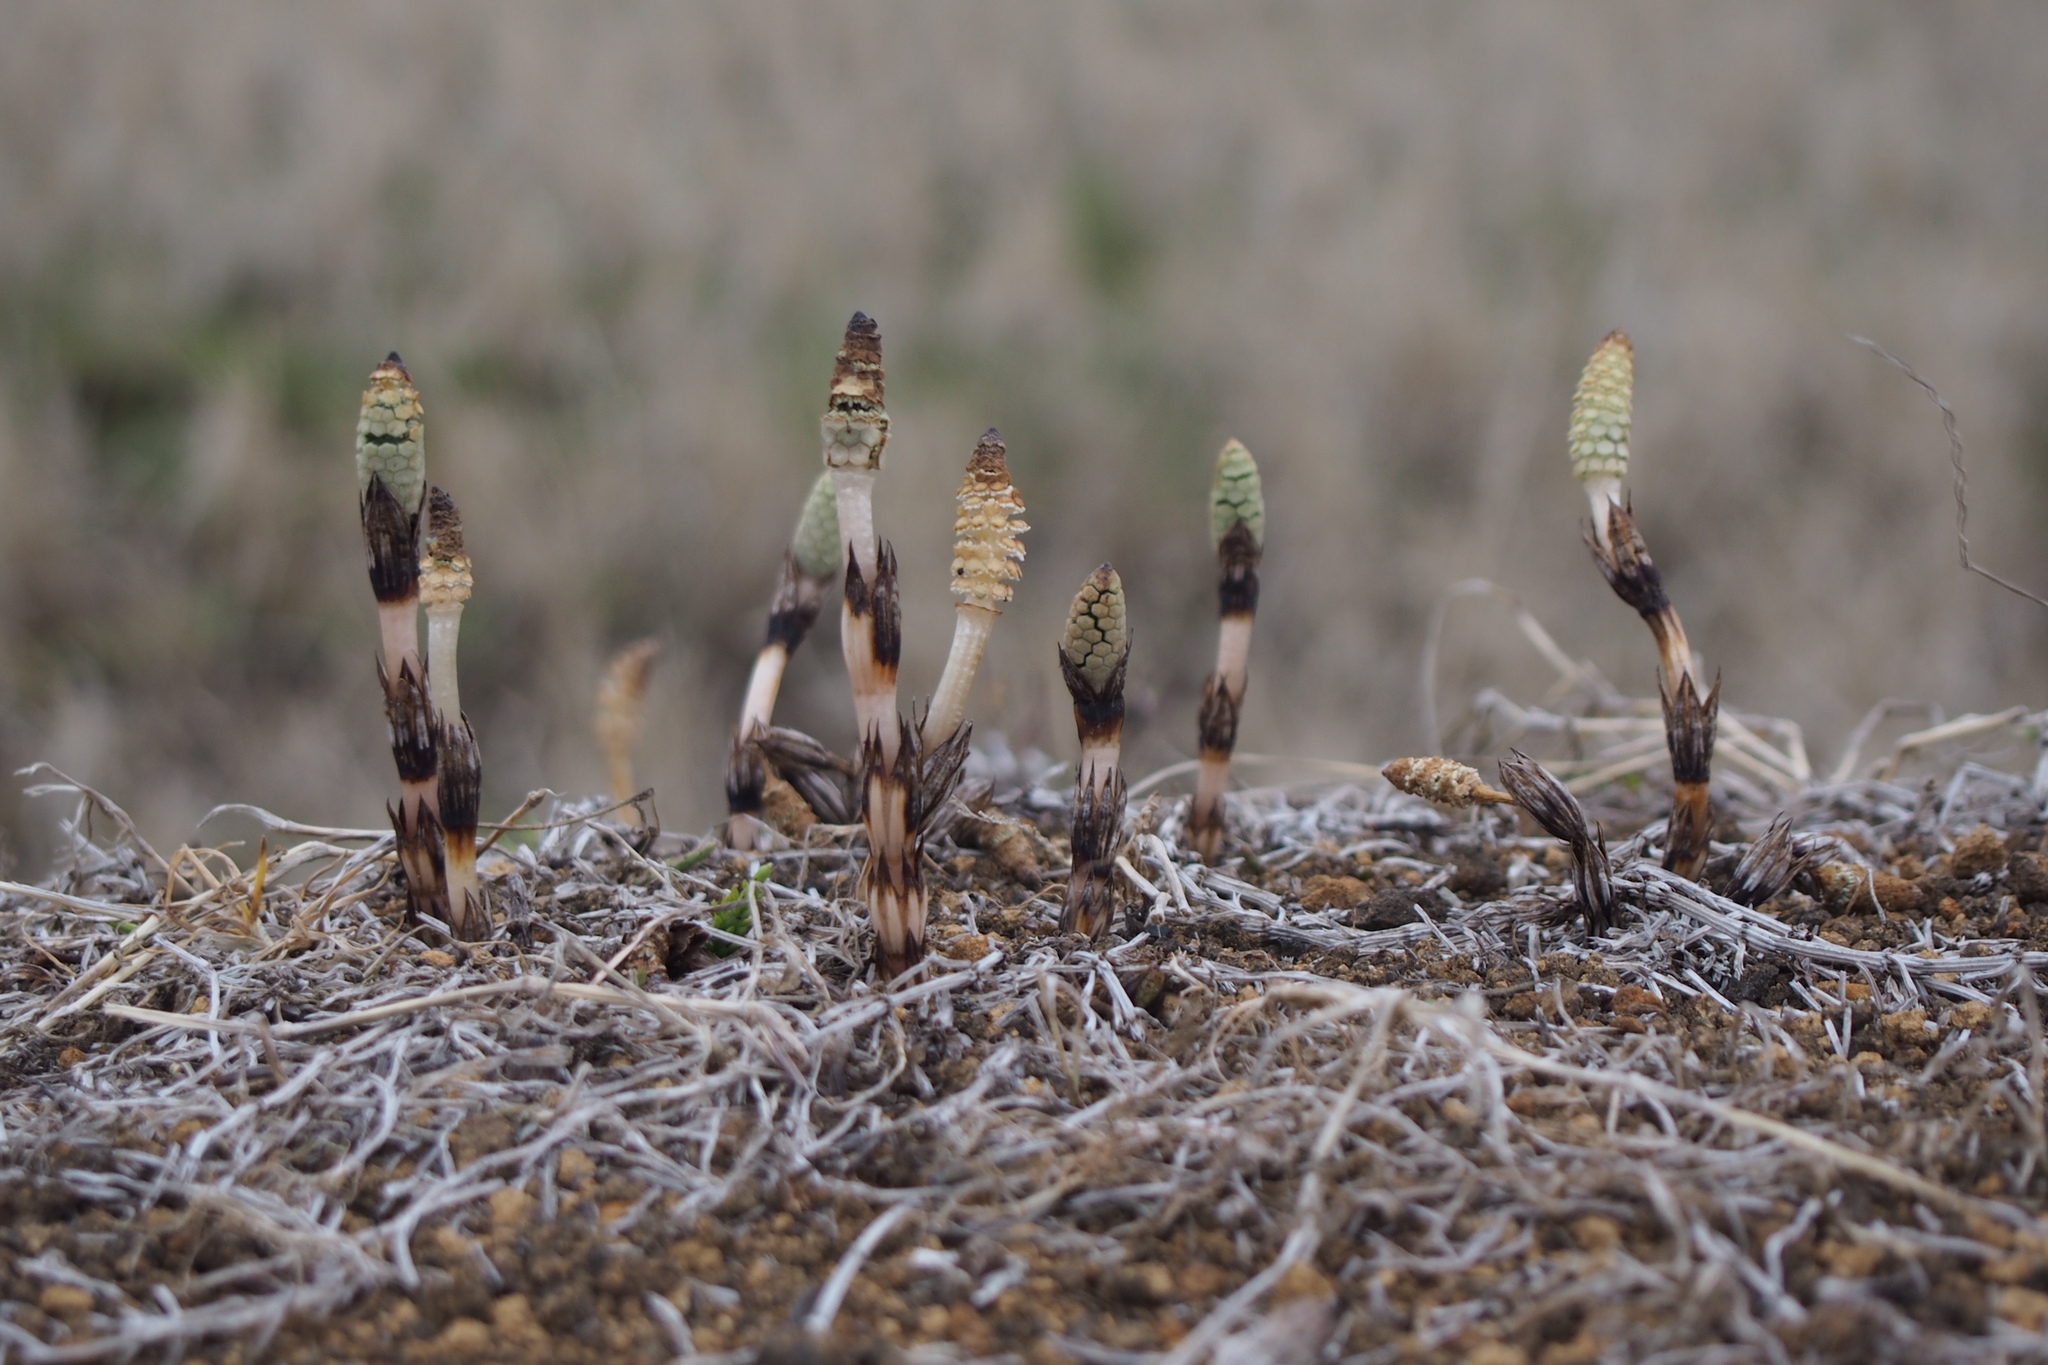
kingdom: Plantae
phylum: Tracheophyta
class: Polypodiopsida
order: Equisetales
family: Equisetaceae
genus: Equisetum
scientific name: Equisetum arvense
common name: Field horsetail
